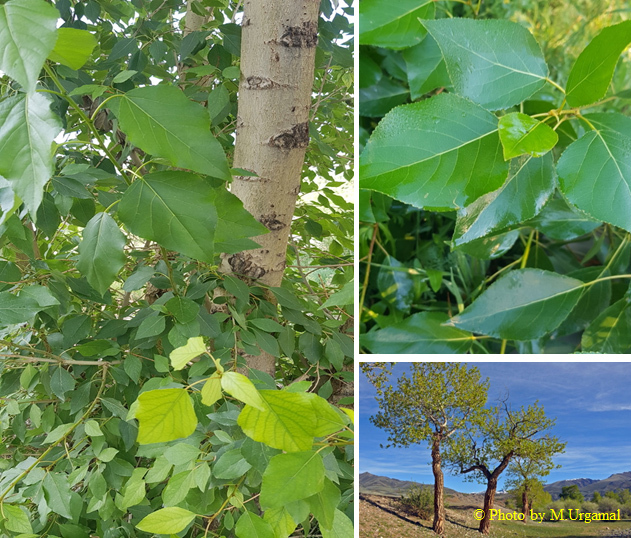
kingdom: Plantae
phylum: Tracheophyta
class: Magnoliopsida
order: Malpighiales
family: Salicaceae
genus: Populus
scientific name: Populus laurifolia
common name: Laurel-leaf poplar
